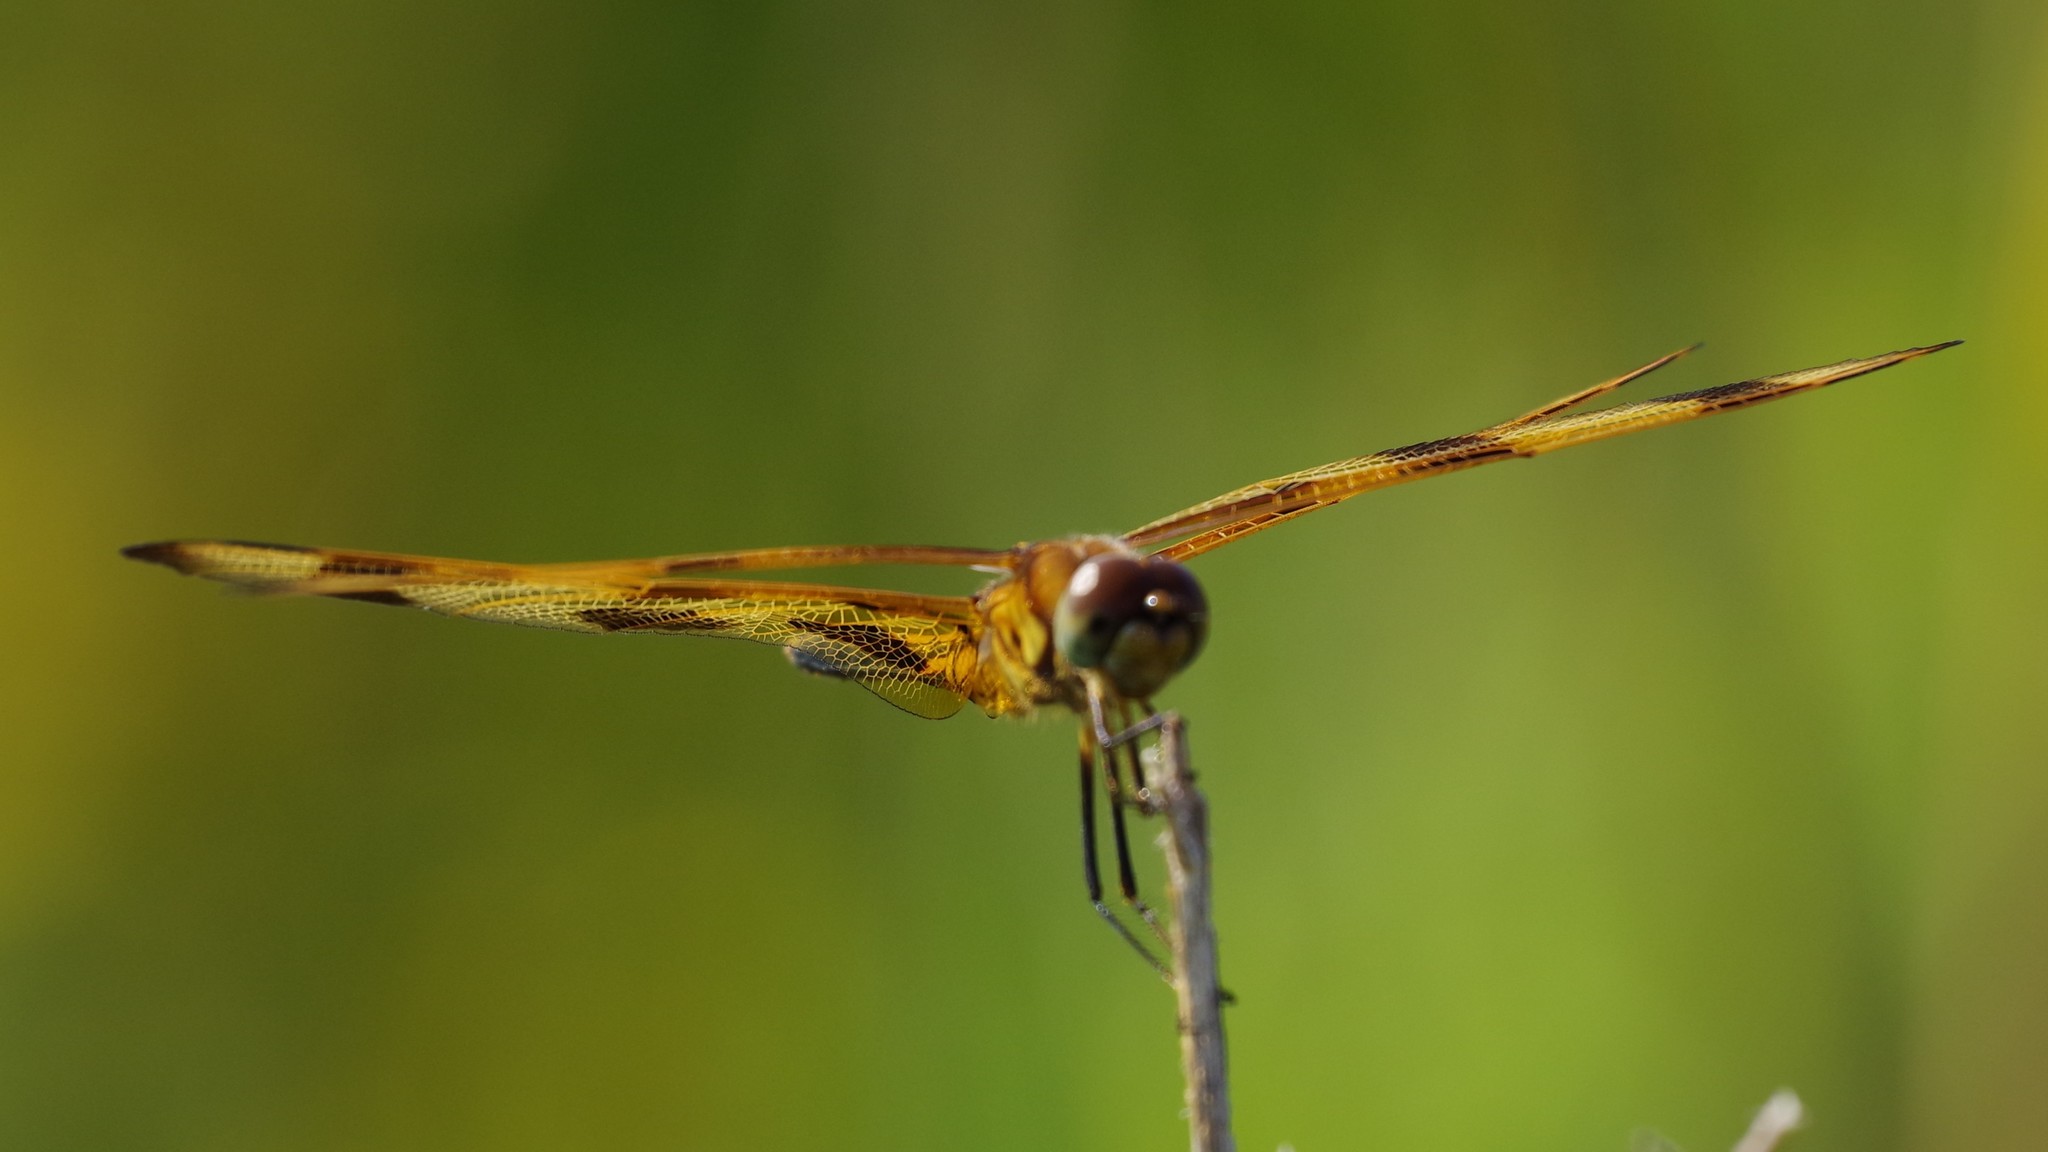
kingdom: Animalia
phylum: Arthropoda
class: Insecta
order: Odonata
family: Libellulidae
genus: Celithemis
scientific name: Celithemis eponina
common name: Halloween pennant
